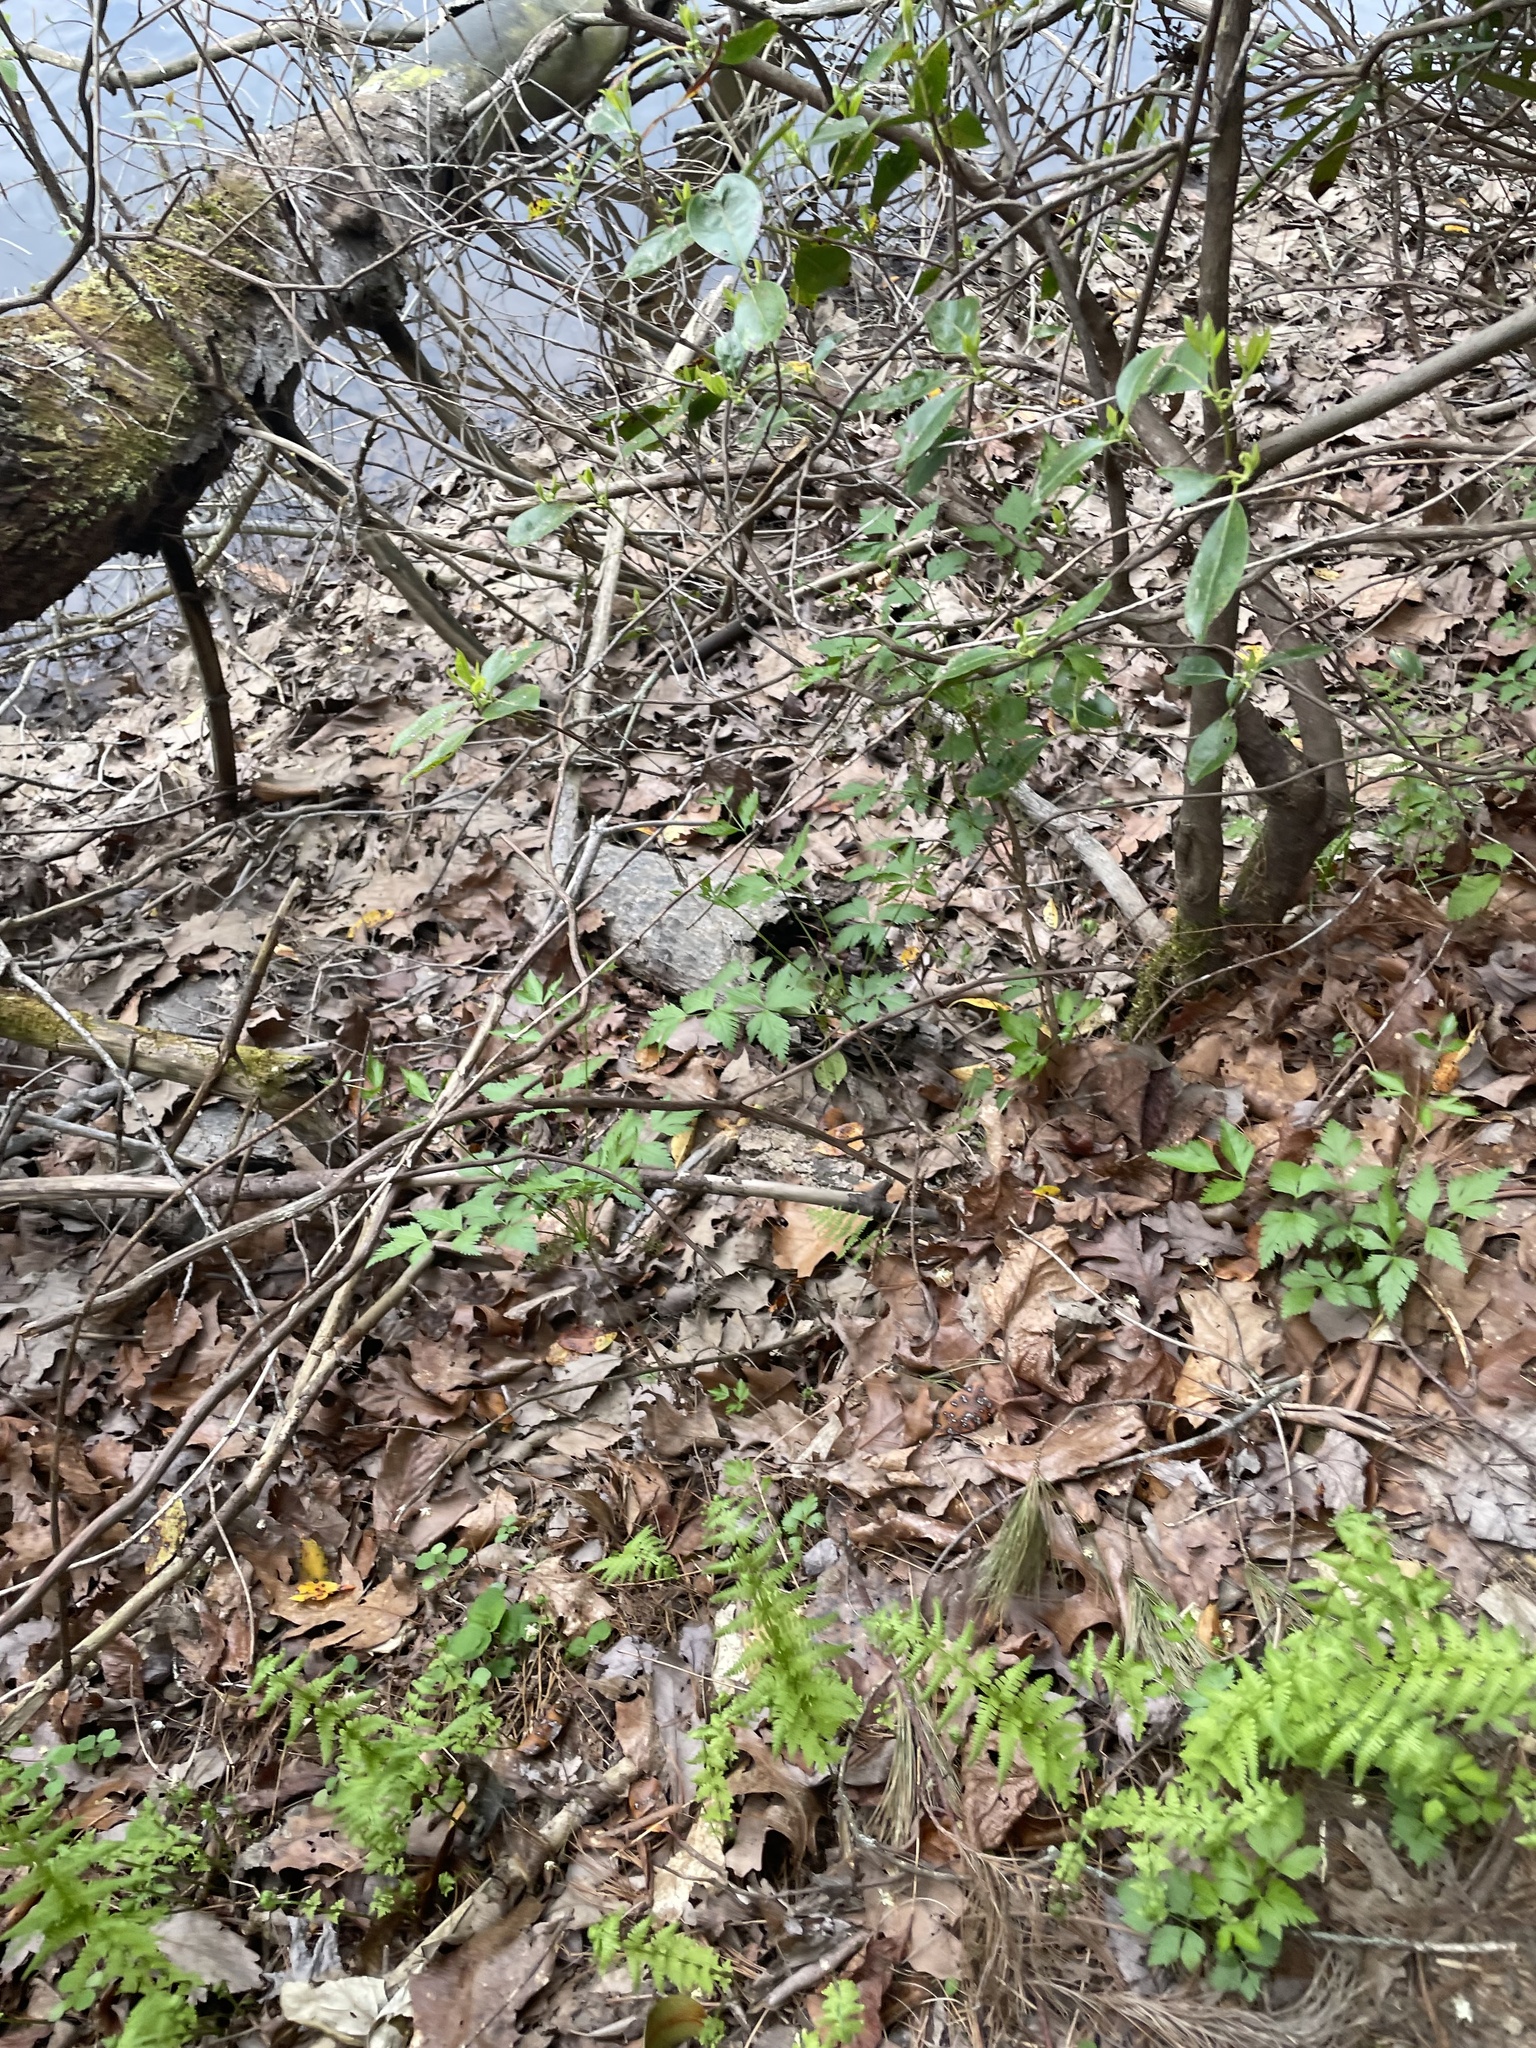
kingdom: Plantae
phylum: Tracheophyta
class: Magnoliopsida
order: Ranunculales
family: Ranunculaceae
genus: Xanthorhiza
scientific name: Xanthorhiza simplicissima
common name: Yellowroot
